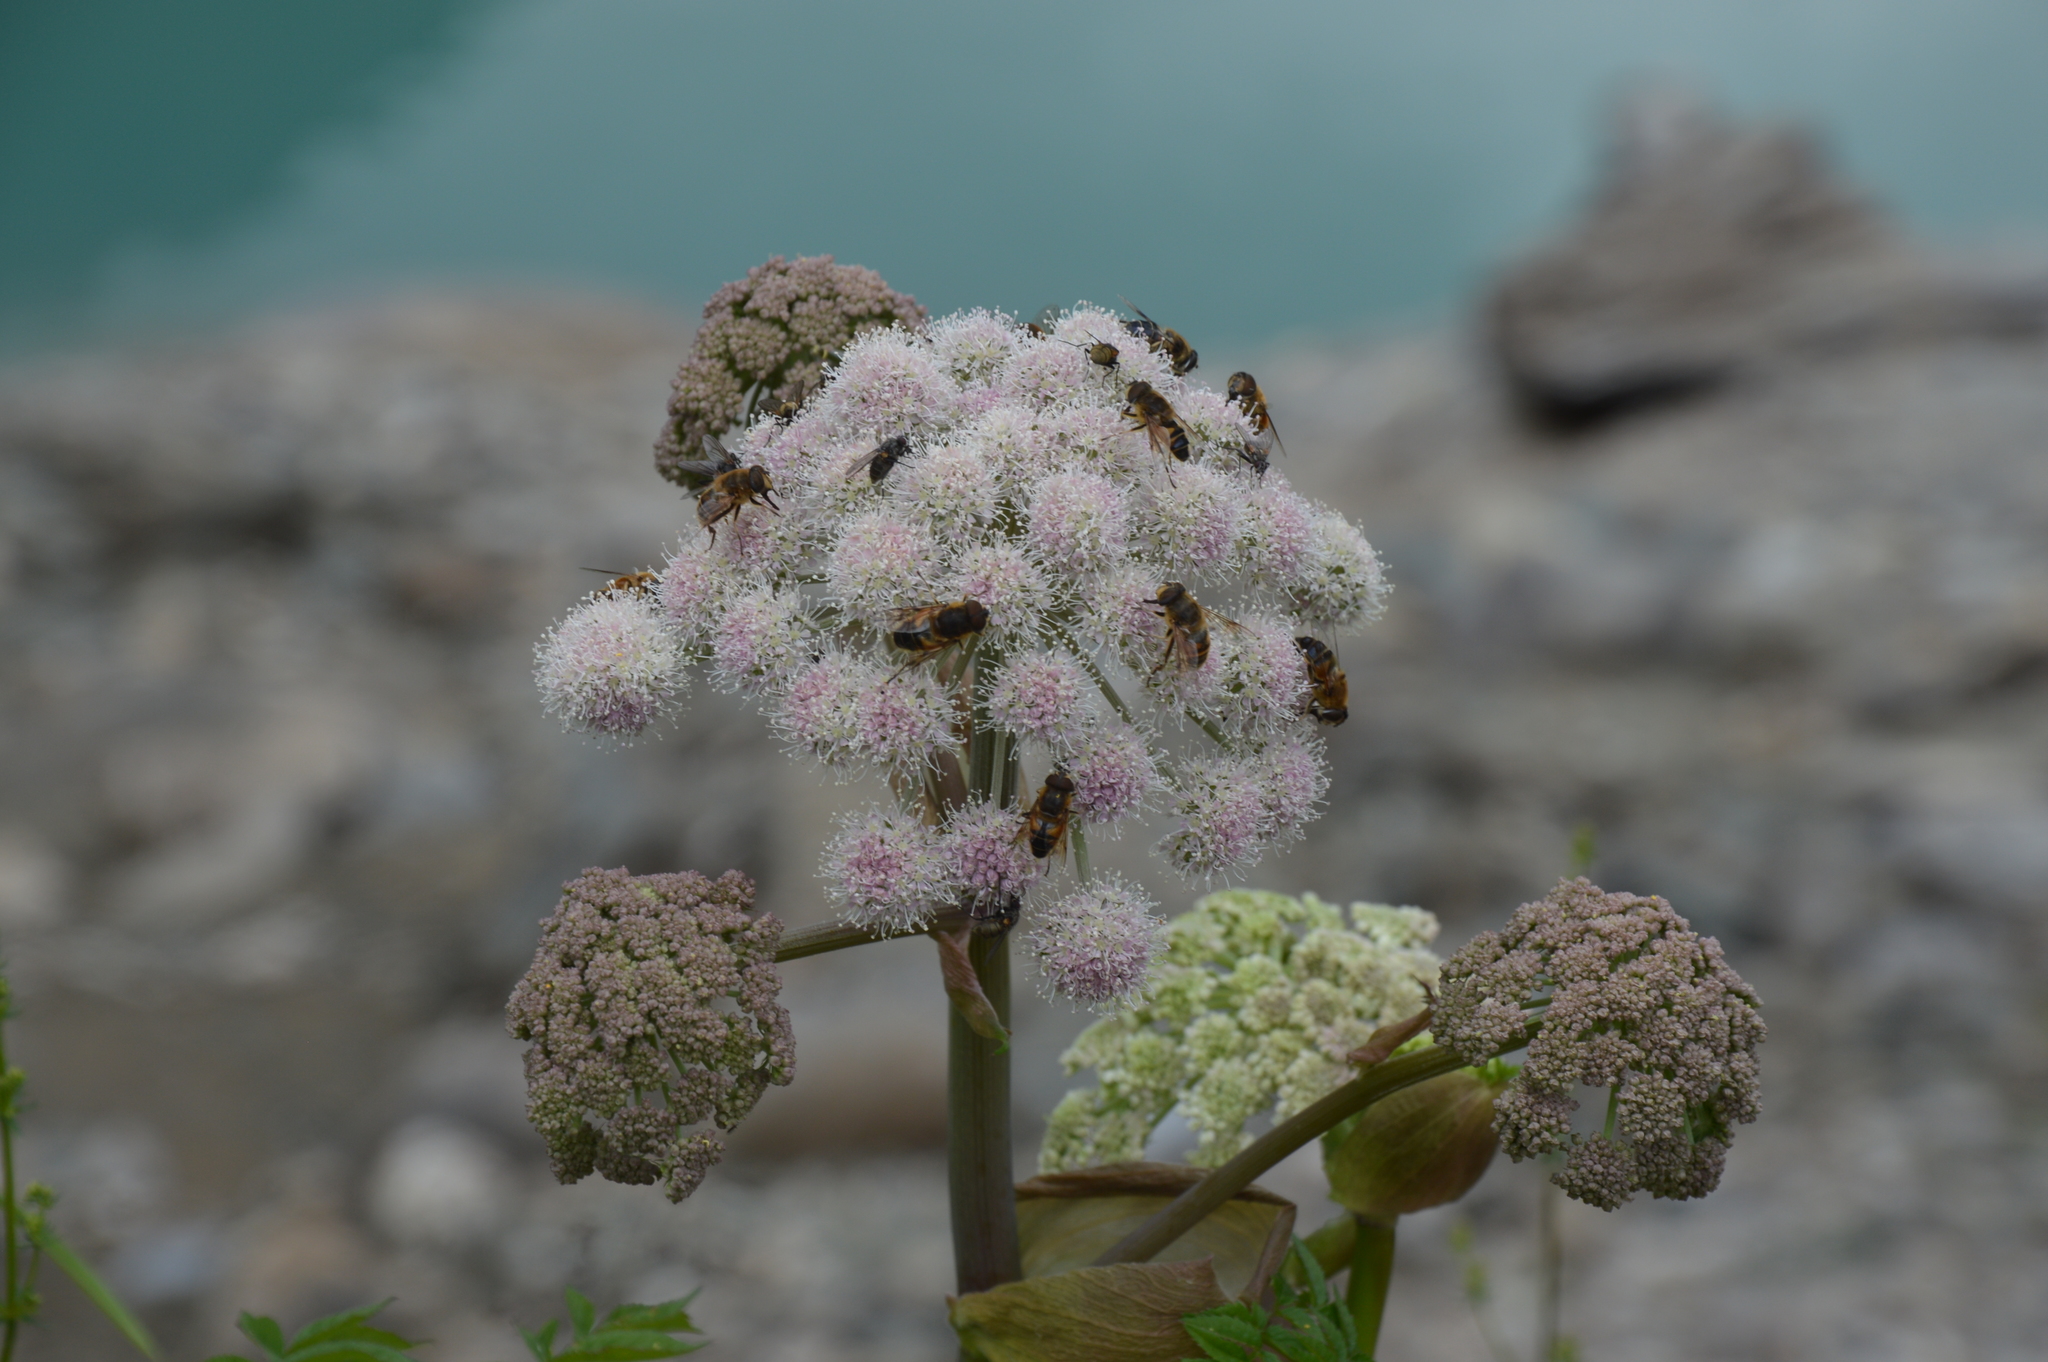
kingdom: Plantae
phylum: Tracheophyta
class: Magnoliopsida
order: Apiales
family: Apiaceae
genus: Angelica
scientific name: Angelica sylvestris
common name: Wild angelica
